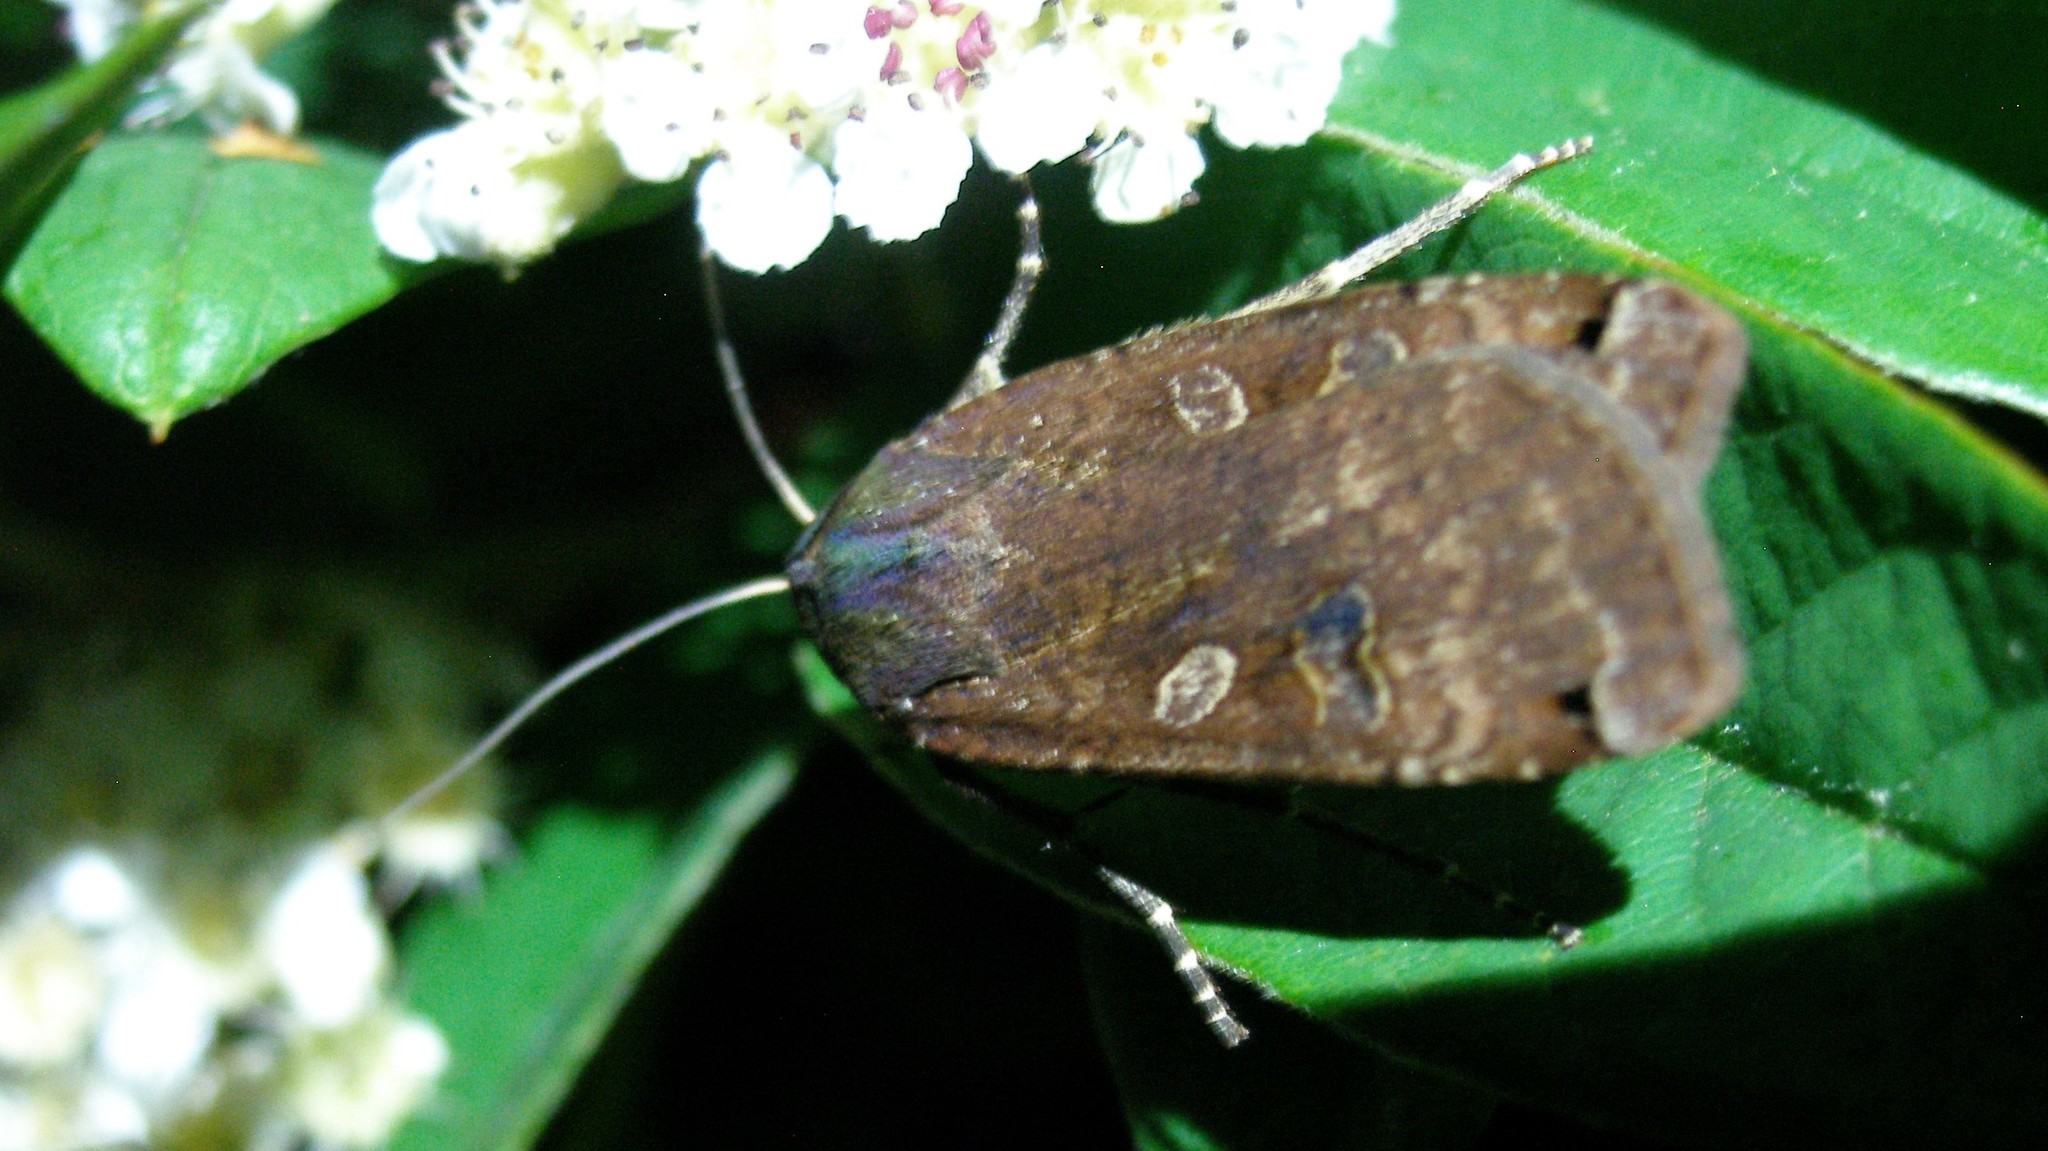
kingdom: Animalia
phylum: Arthropoda
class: Insecta
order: Lepidoptera
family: Noctuidae
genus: Noctua
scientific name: Noctua pronuba
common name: Large yellow underwing
